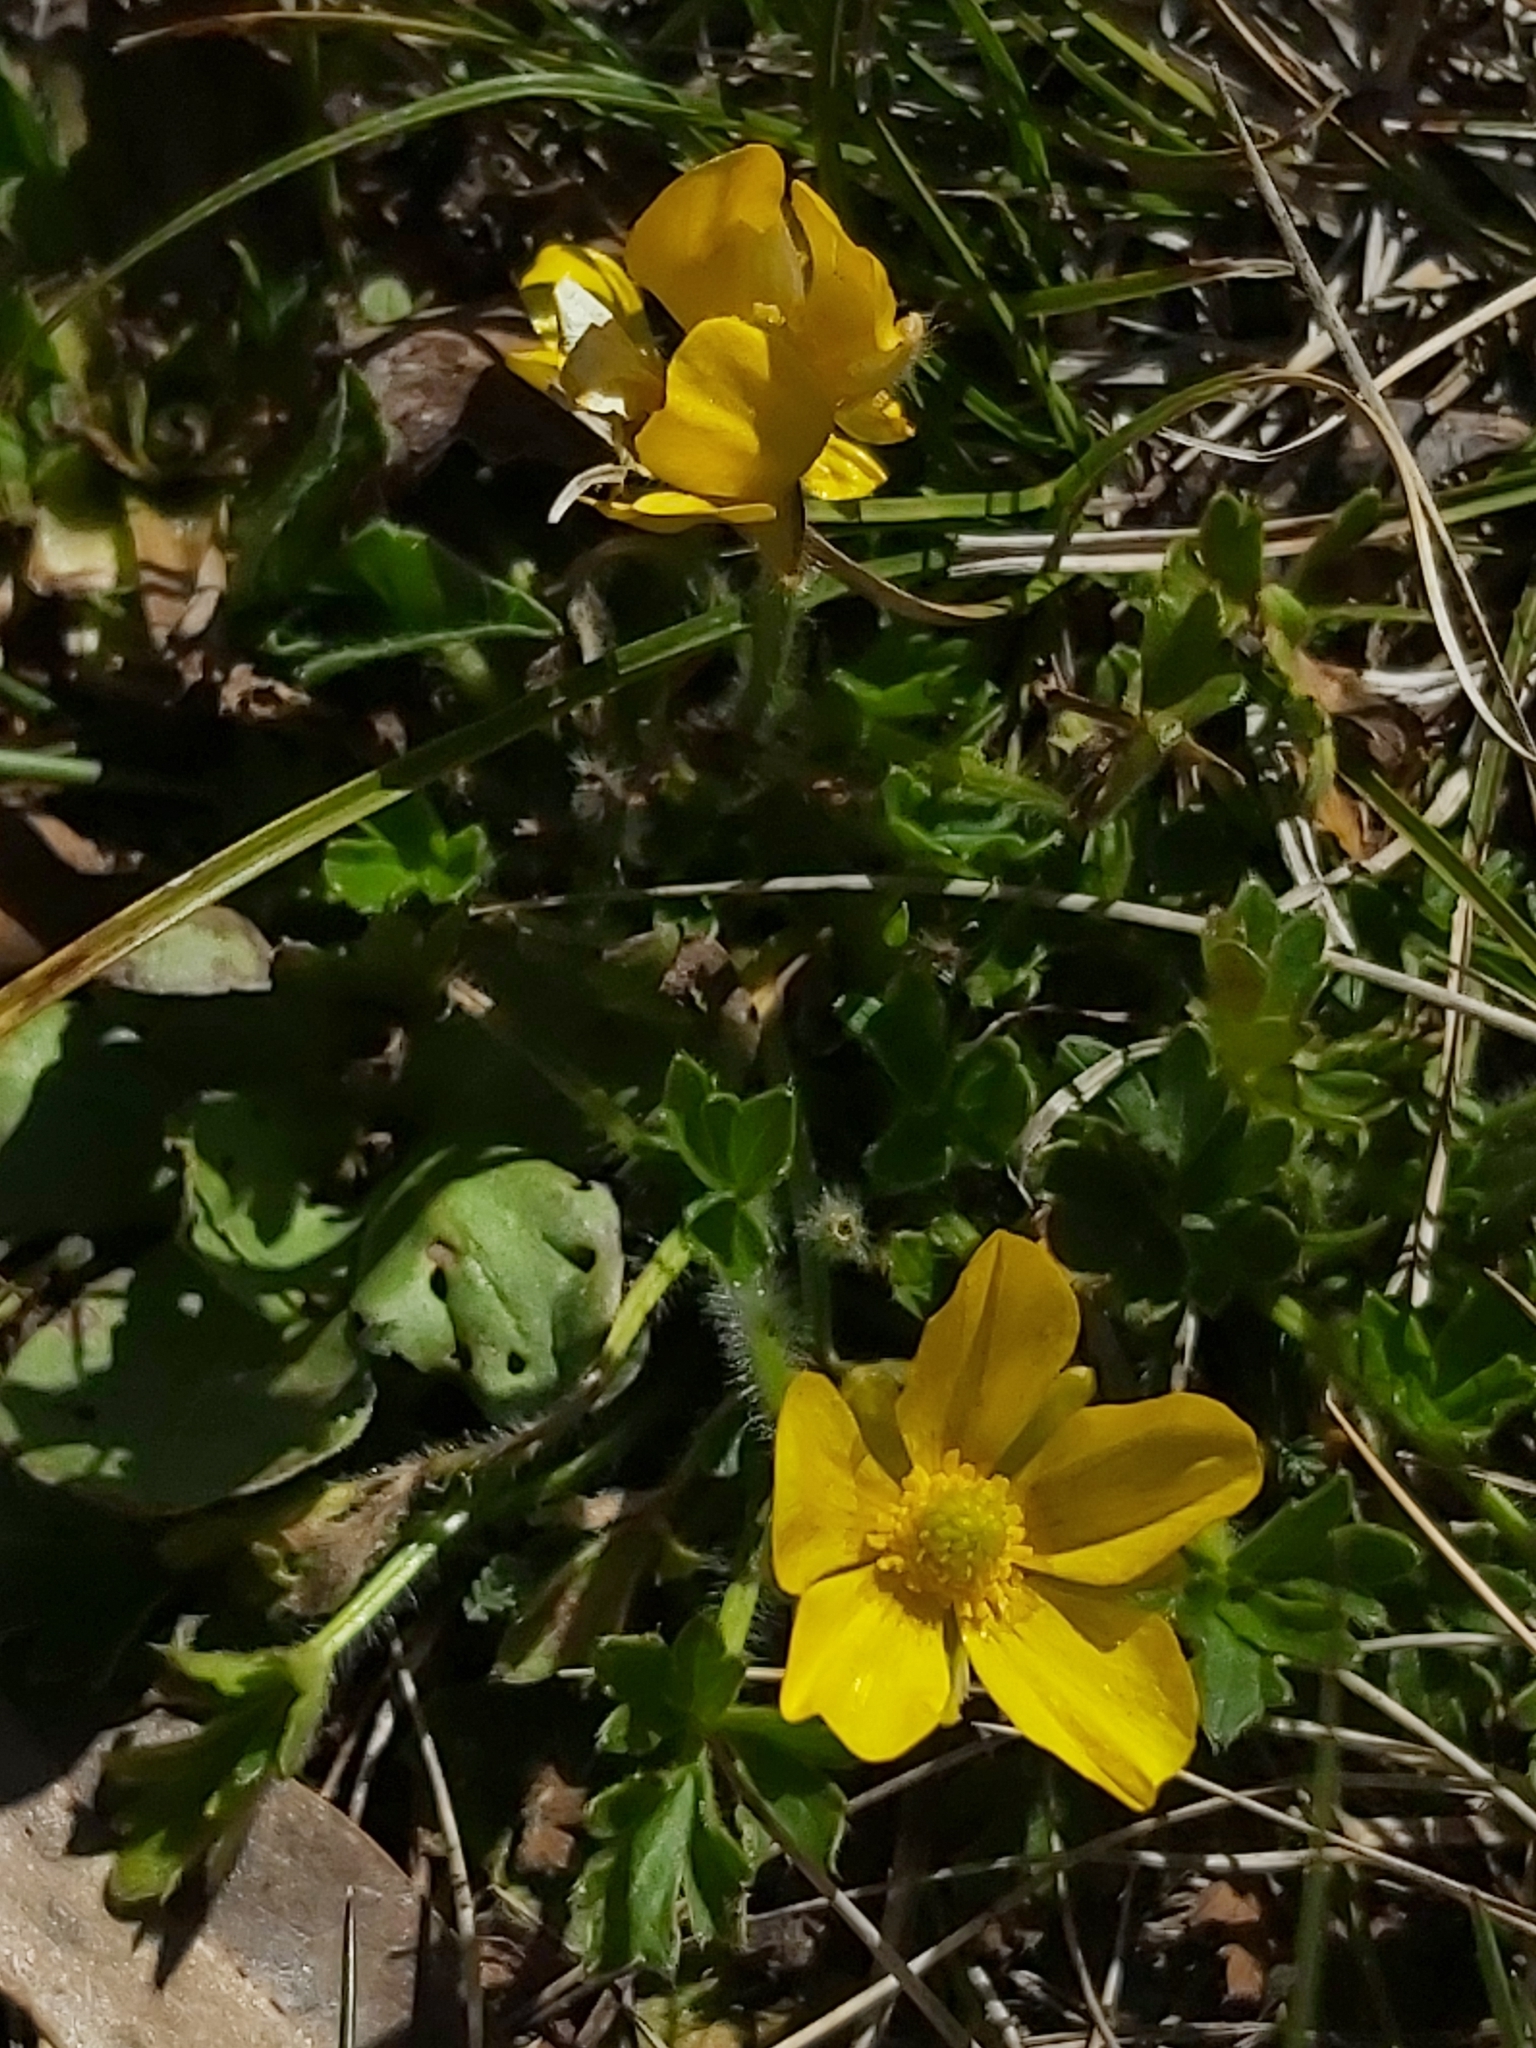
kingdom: Plantae
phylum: Tracheophyta
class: Magnoliopsida
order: Ranunculales
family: Ranunculaceae
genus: Ranunculus
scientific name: Ranunculus graniticola
